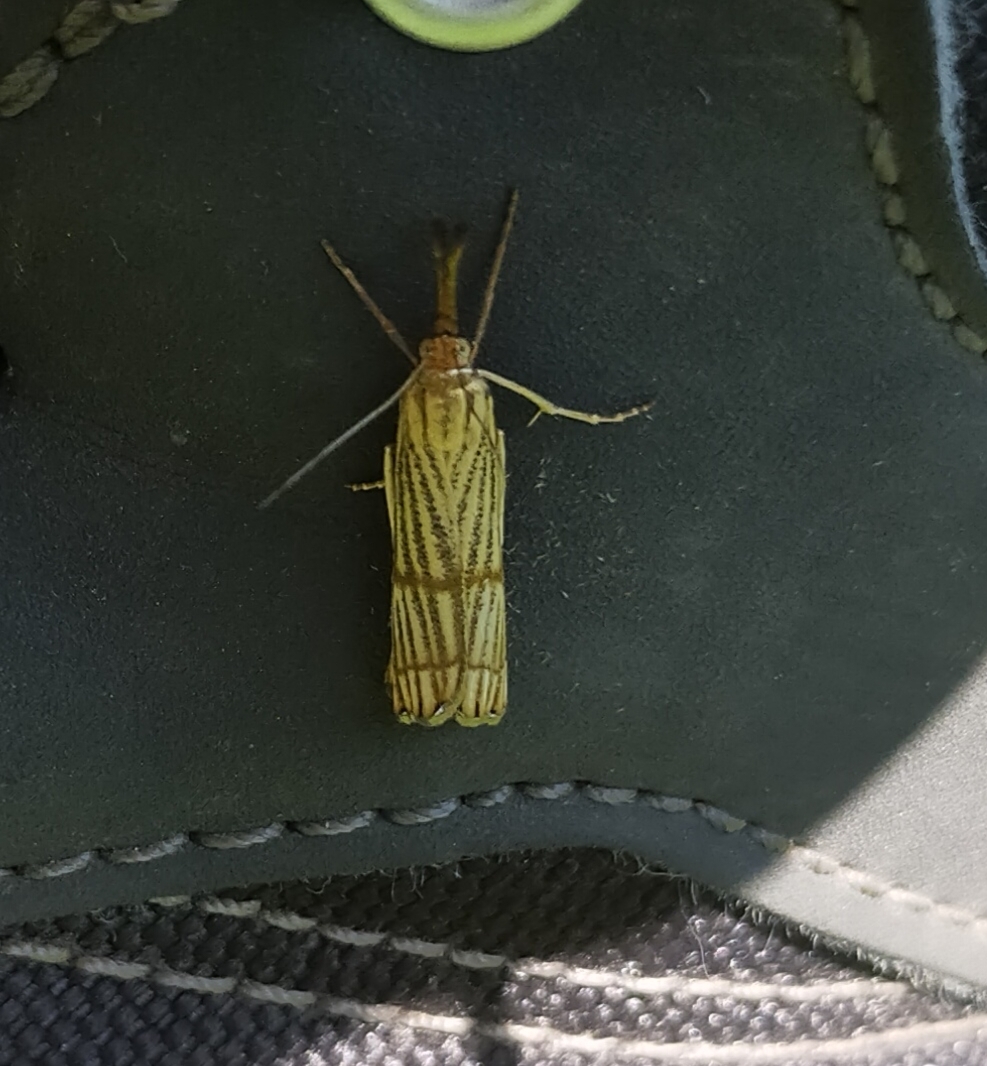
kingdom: Animalia
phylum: Arthropoda
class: Insecta
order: Lepidoptera
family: Crambidae
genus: Chrysocrambus
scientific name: Chrysocrambus linetella
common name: Orange-bar grass-veneer
